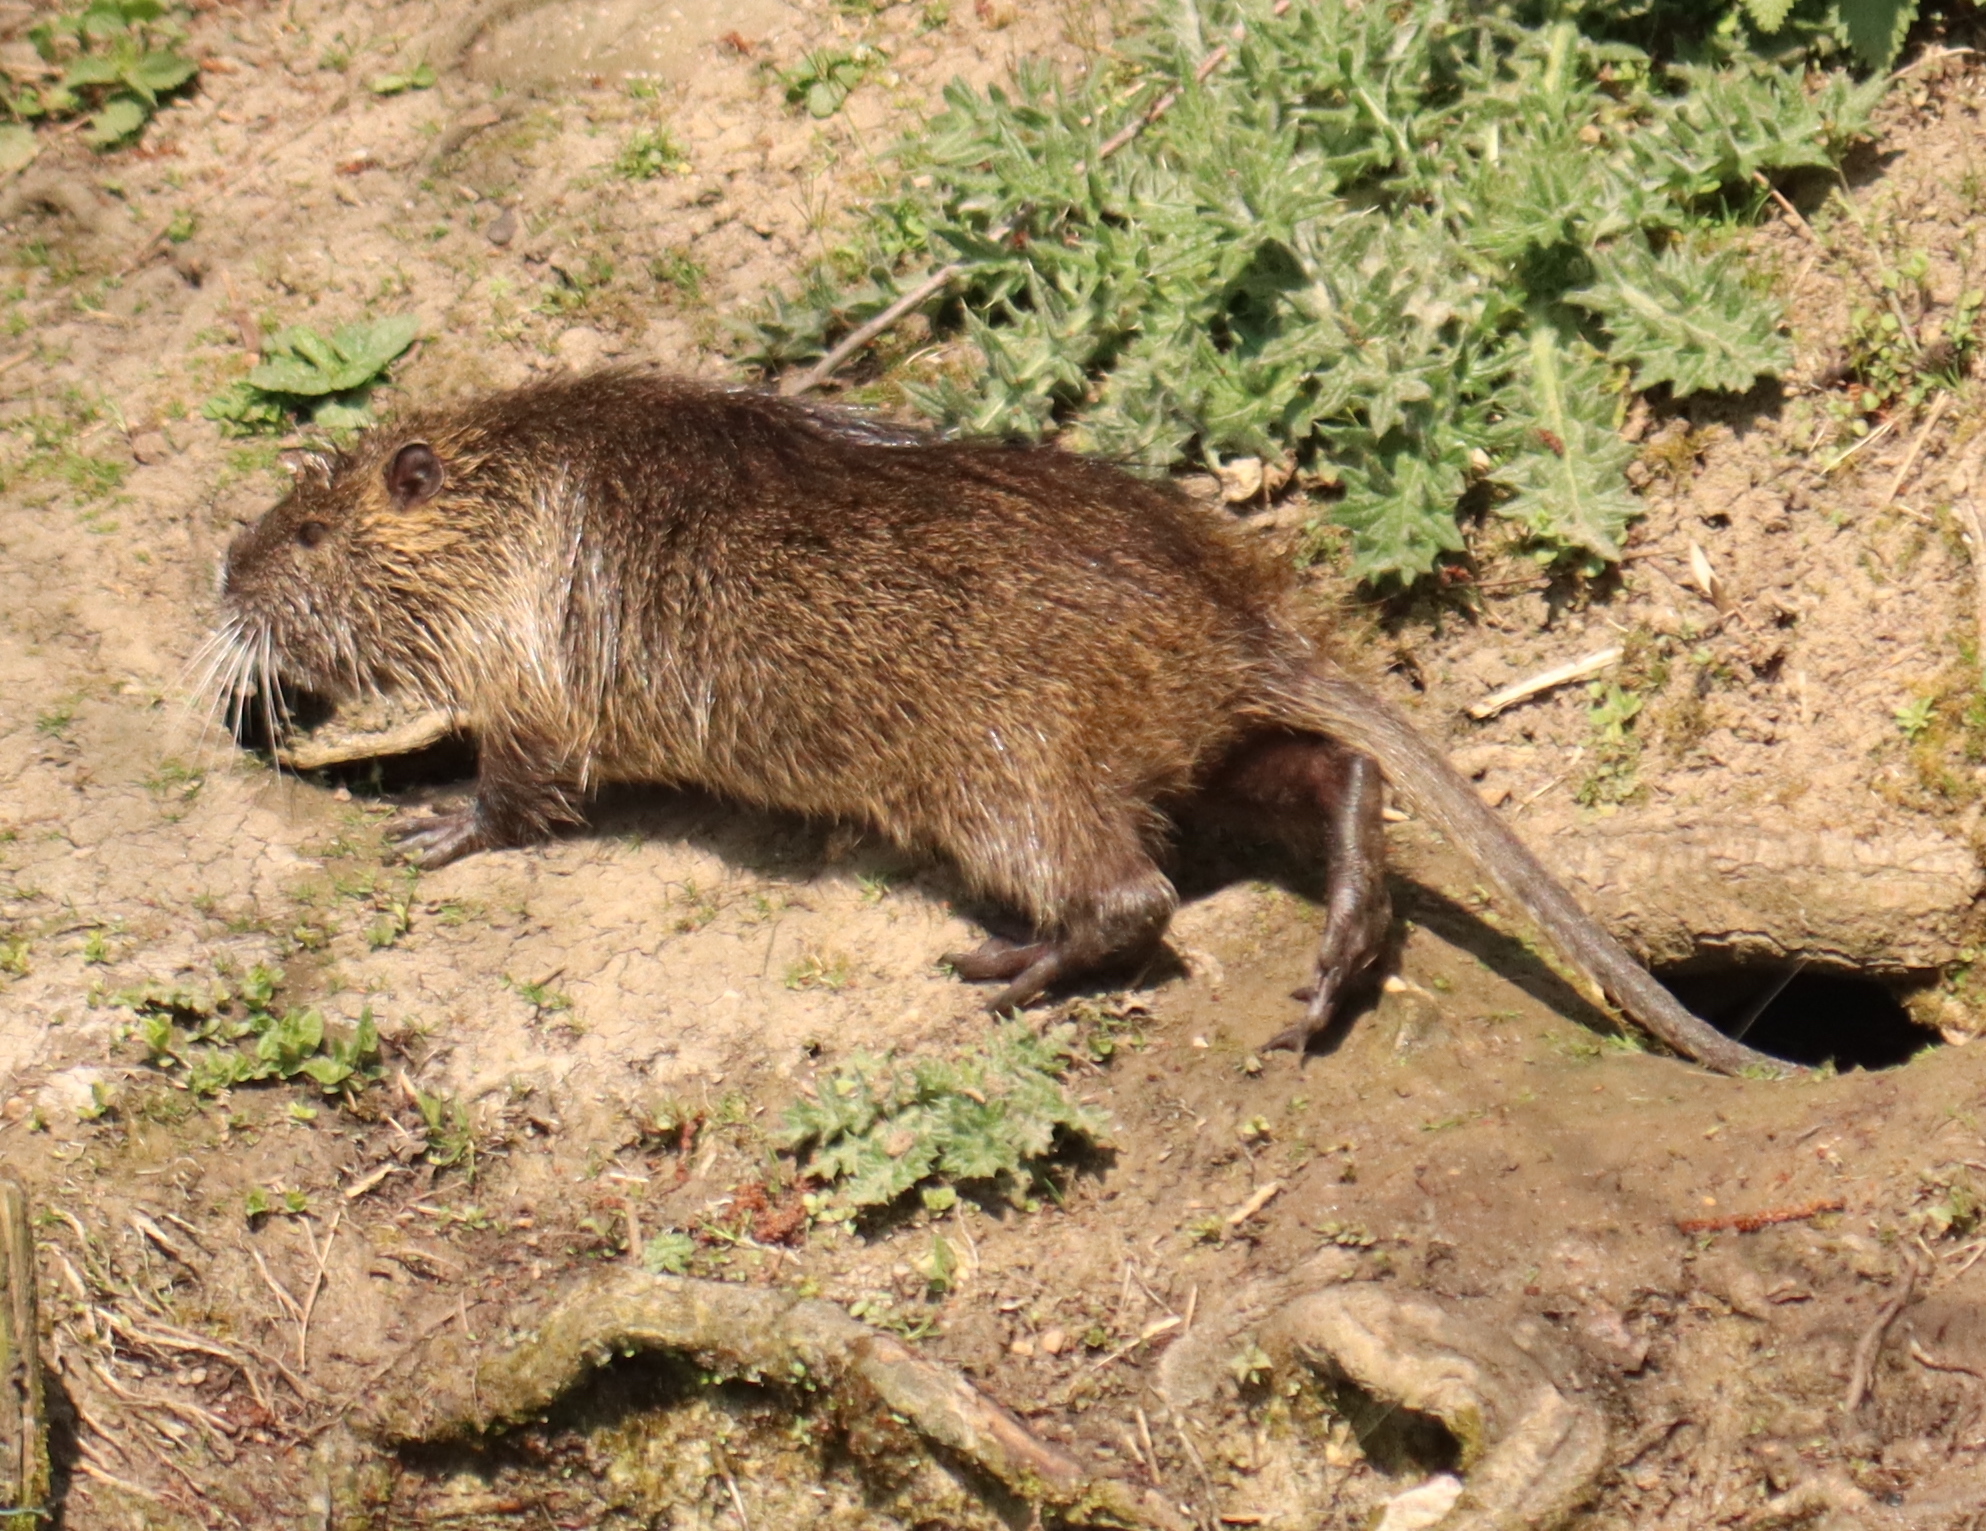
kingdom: Animalia
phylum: Chordata
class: Mammalia
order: Rodentia
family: Myocastoridae
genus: Myocastor
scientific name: Myocastor coypus
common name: Coypu
